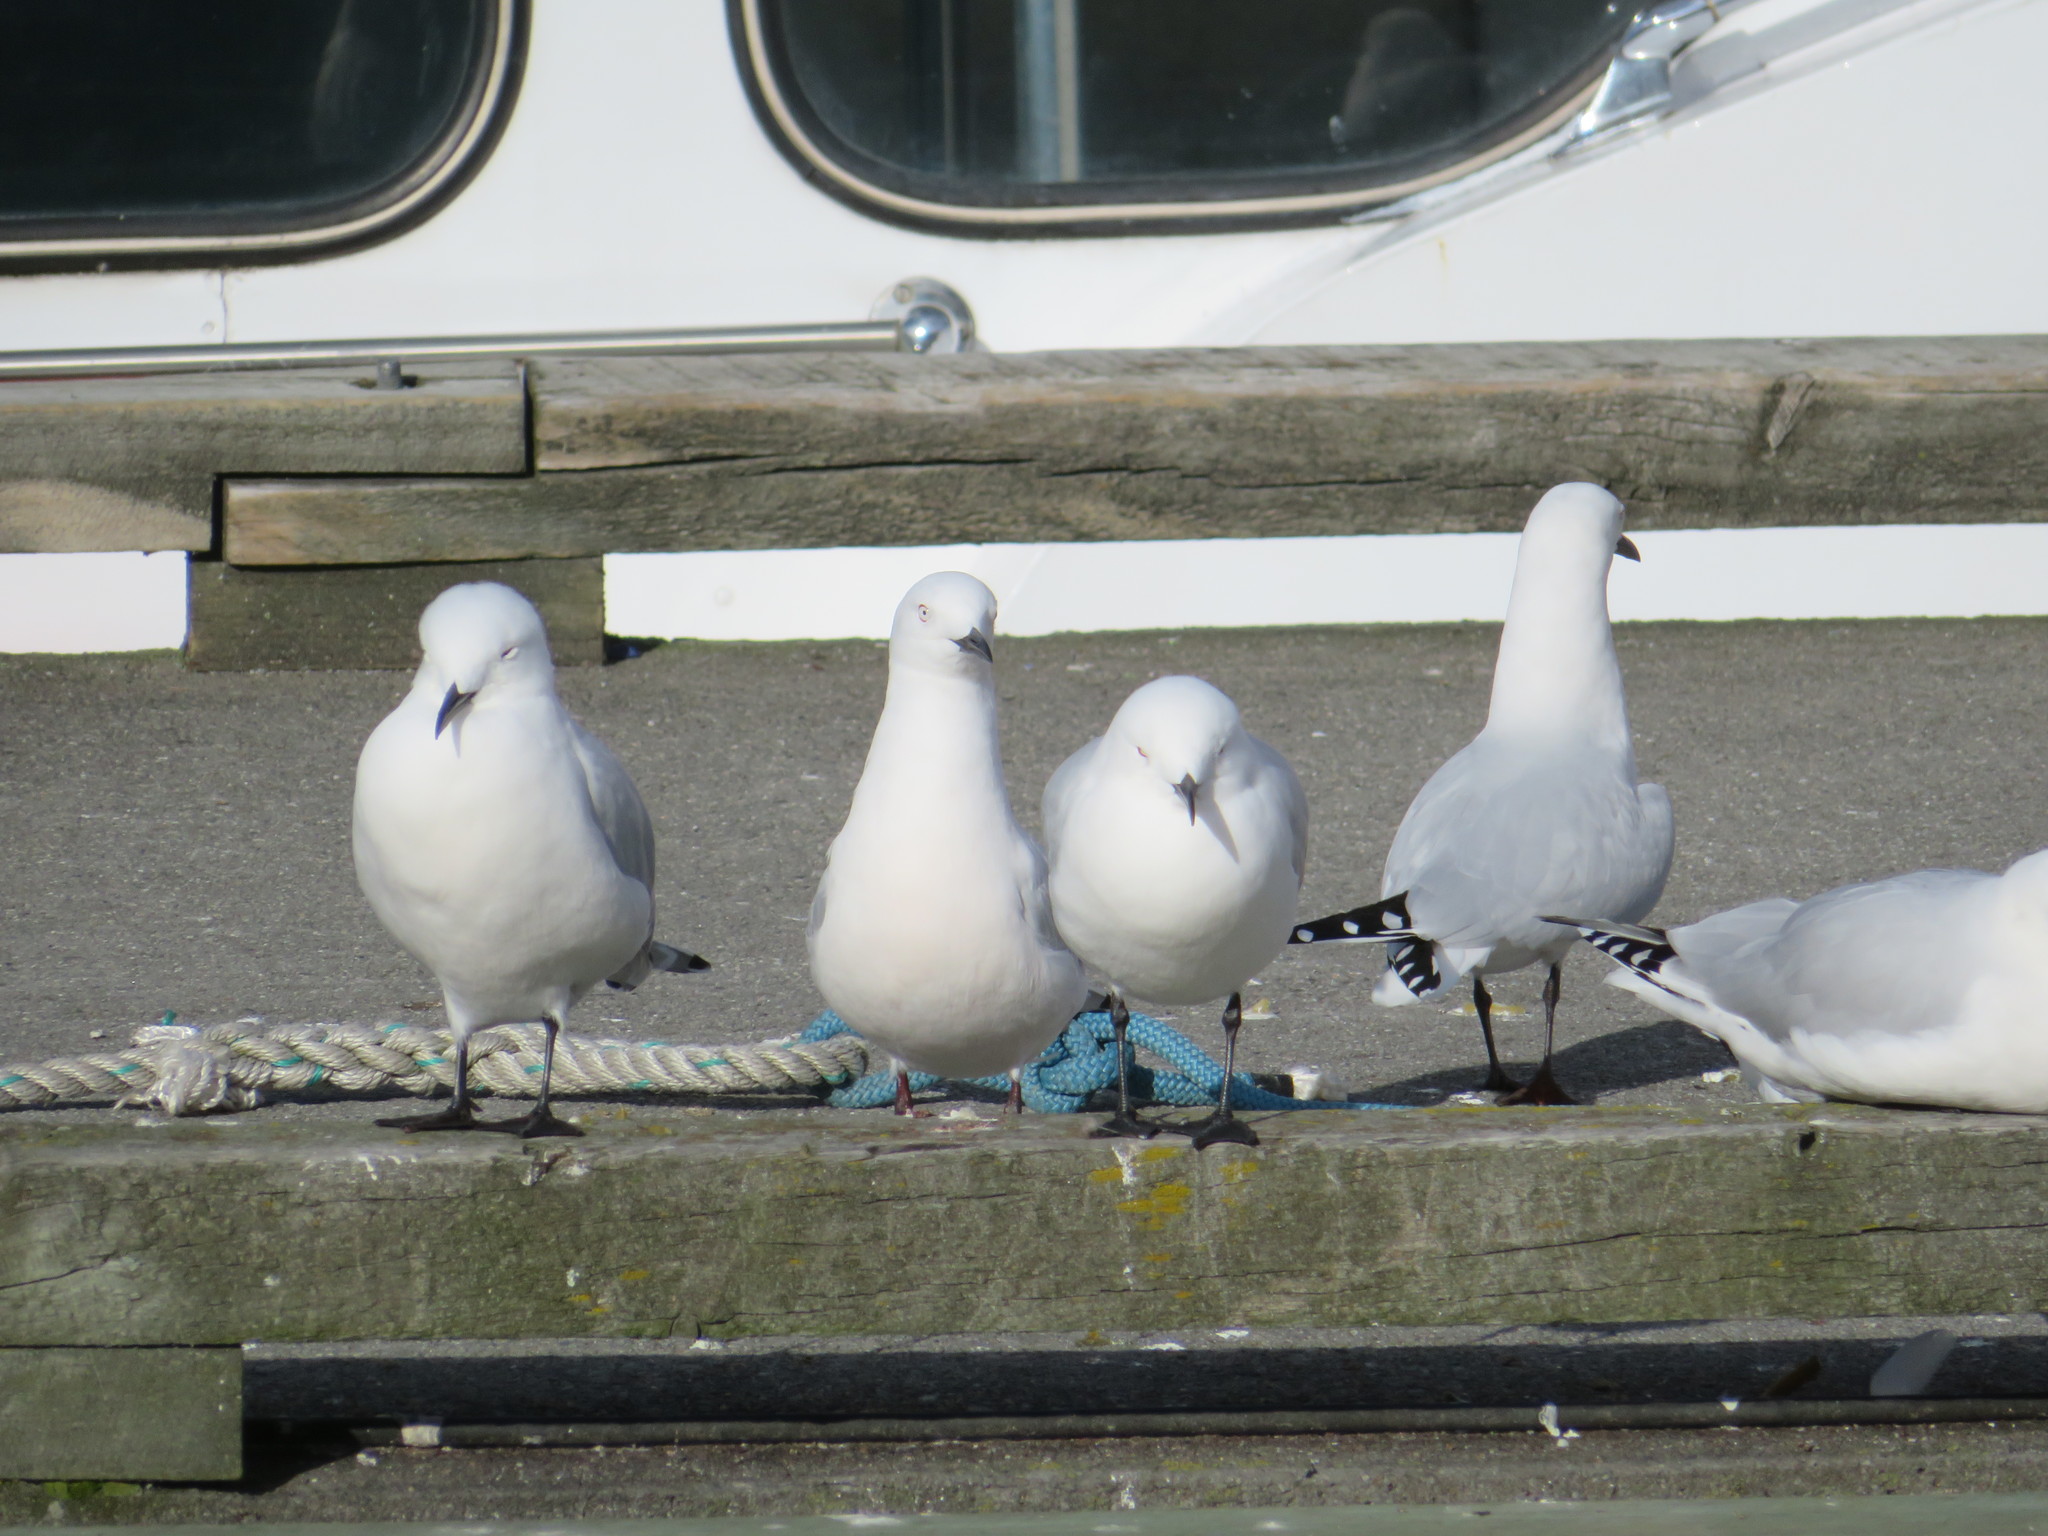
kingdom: Animalia
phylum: Chordata
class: Aves
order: Charadriiformes
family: Laridae
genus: Chroicocephalus
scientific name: Chroicocephalus bulleri
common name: Black-billed gull
